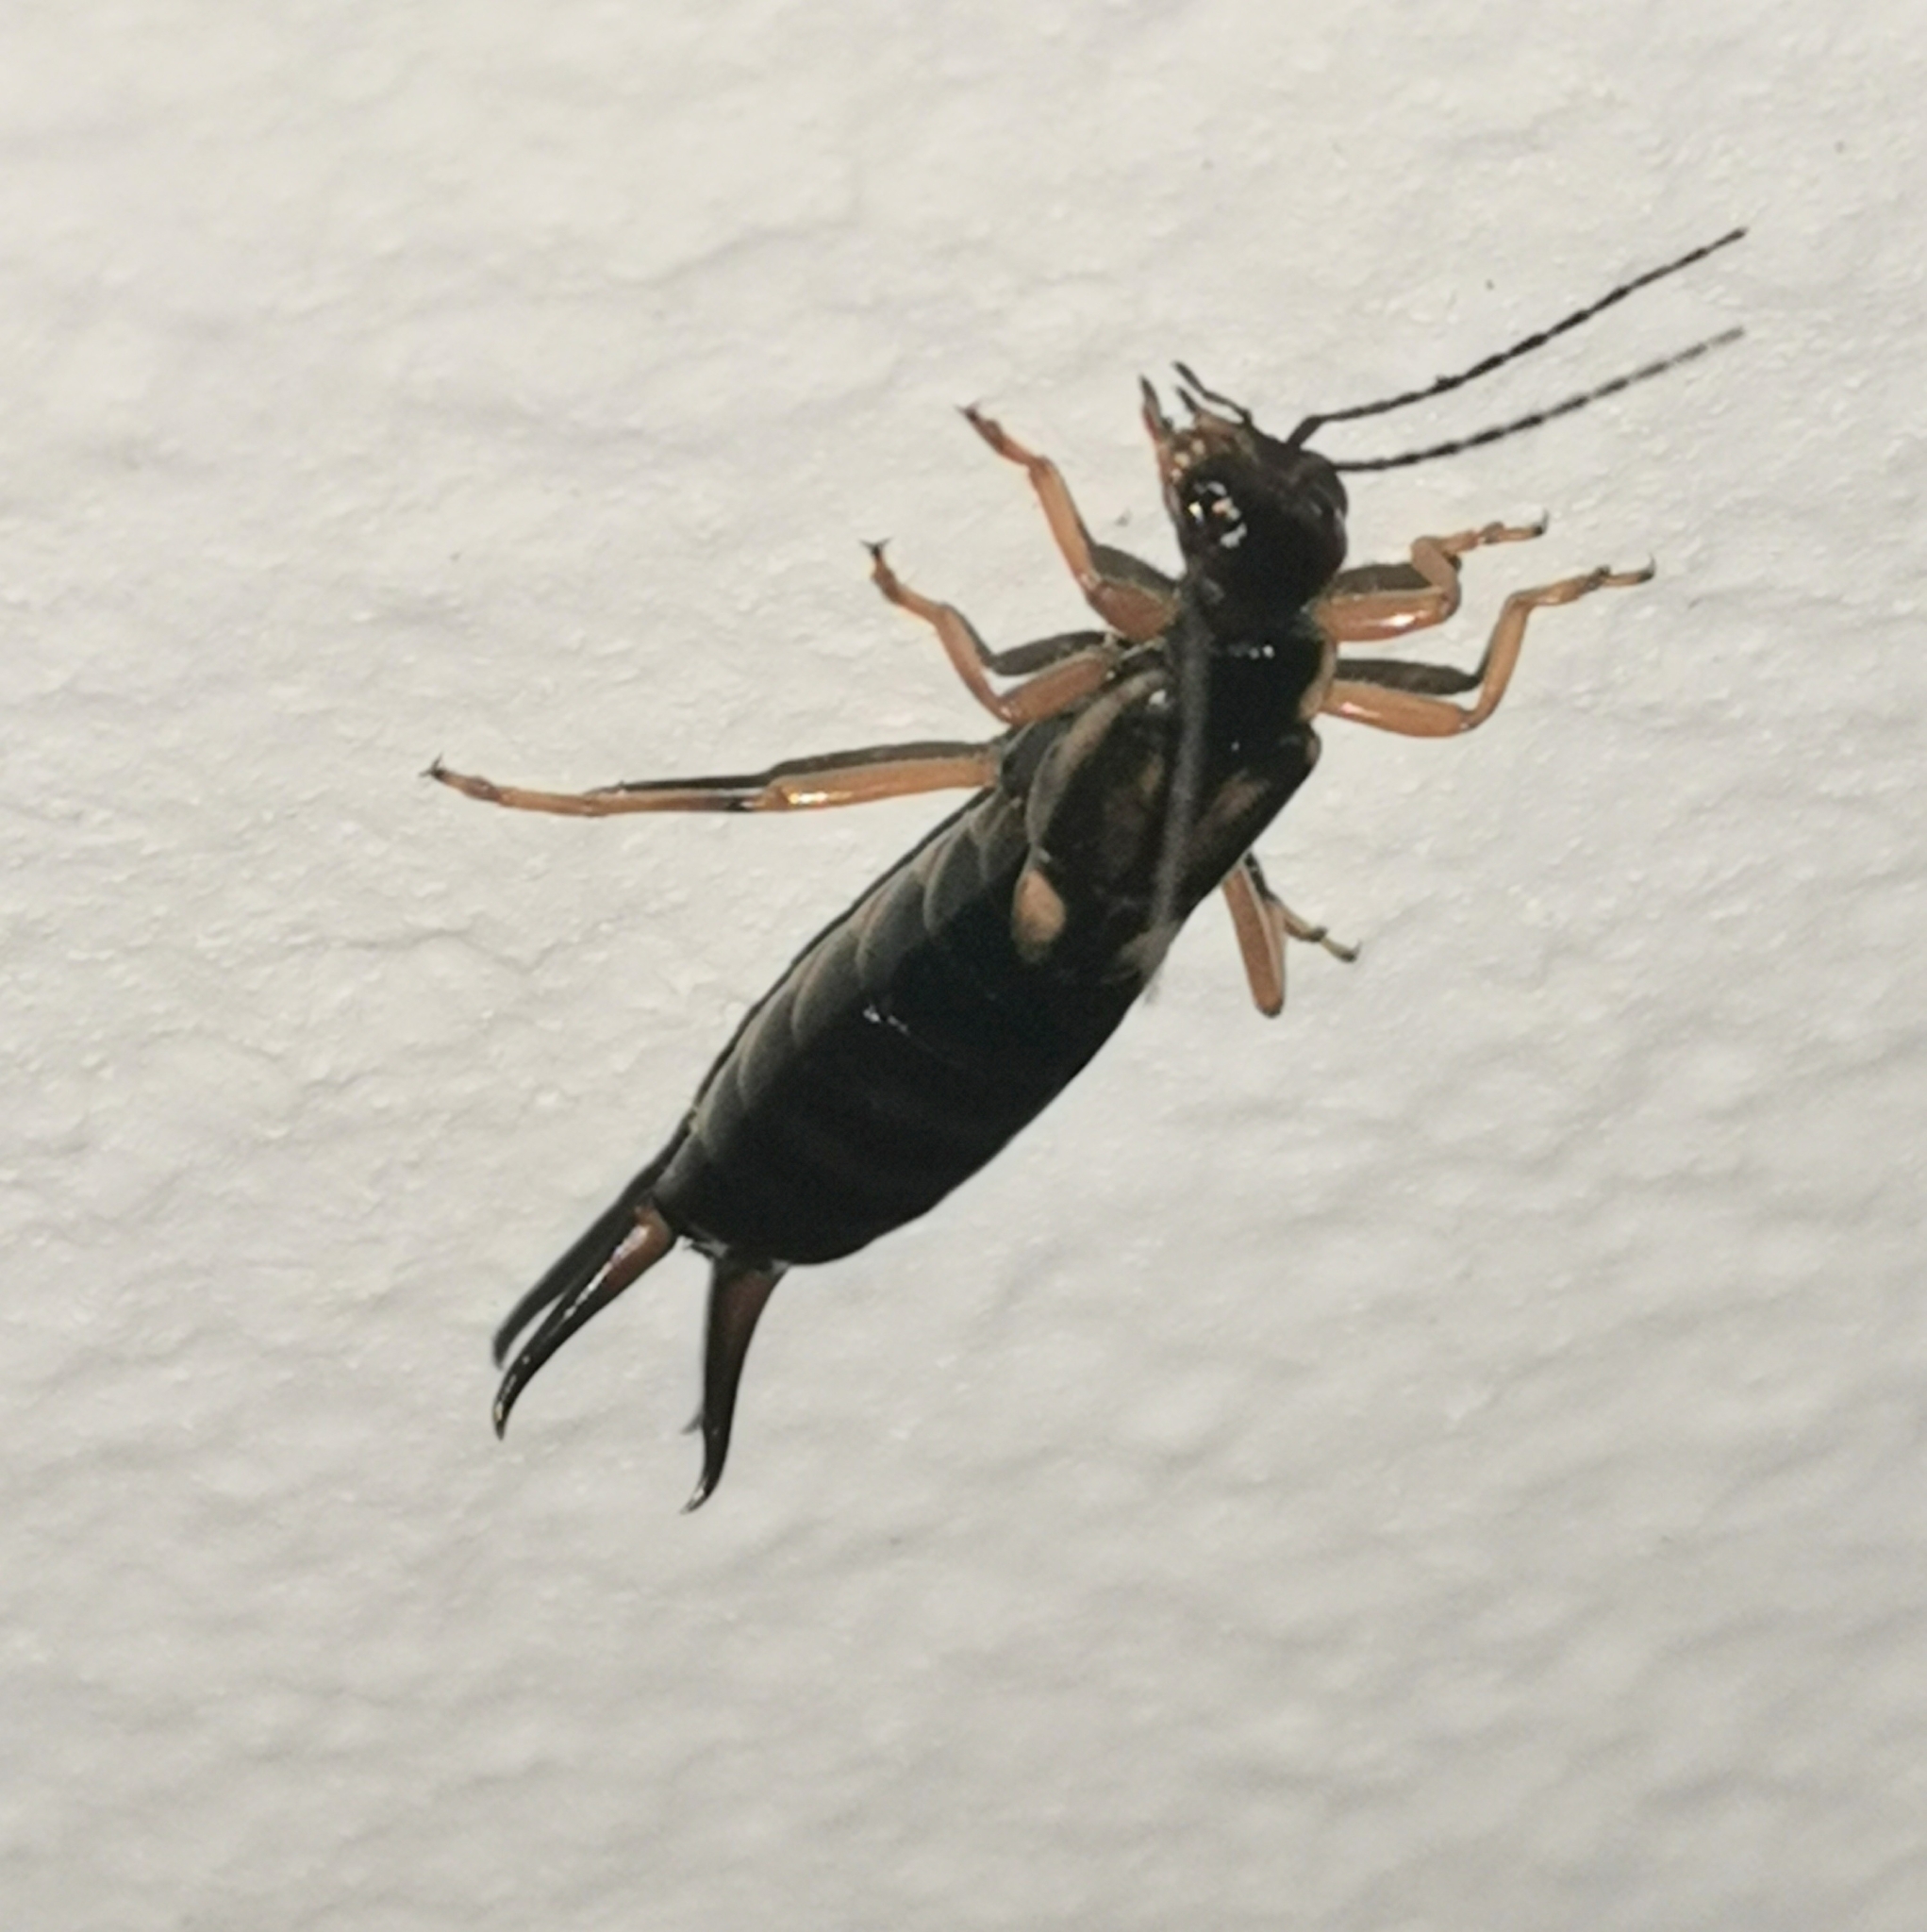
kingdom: Animalia
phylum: Arthropoda
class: Insecta
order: Dermaptera
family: Forficulidae
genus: Forficula
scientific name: Forficula
